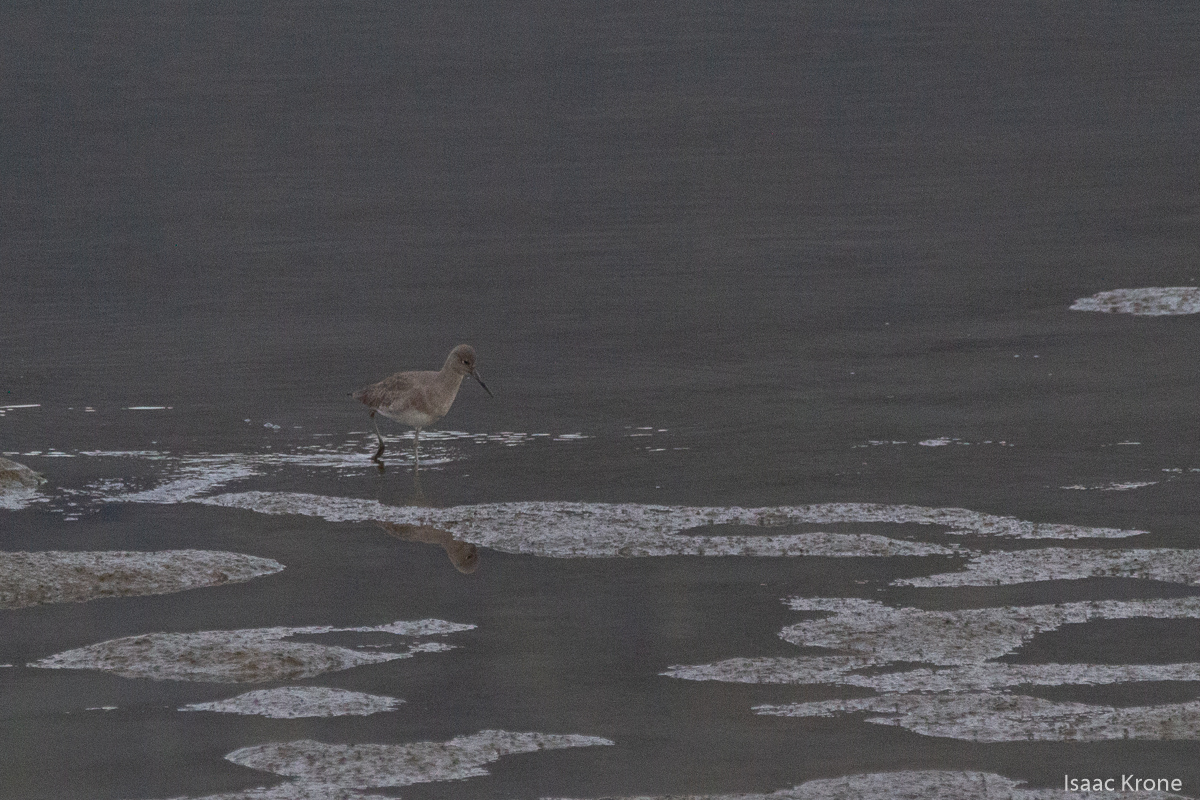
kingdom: Animalia
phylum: Chordata
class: Aves
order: Charadriiformes
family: Scolopacidae
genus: Tringa
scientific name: Tringa semipalmata
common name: Willet
